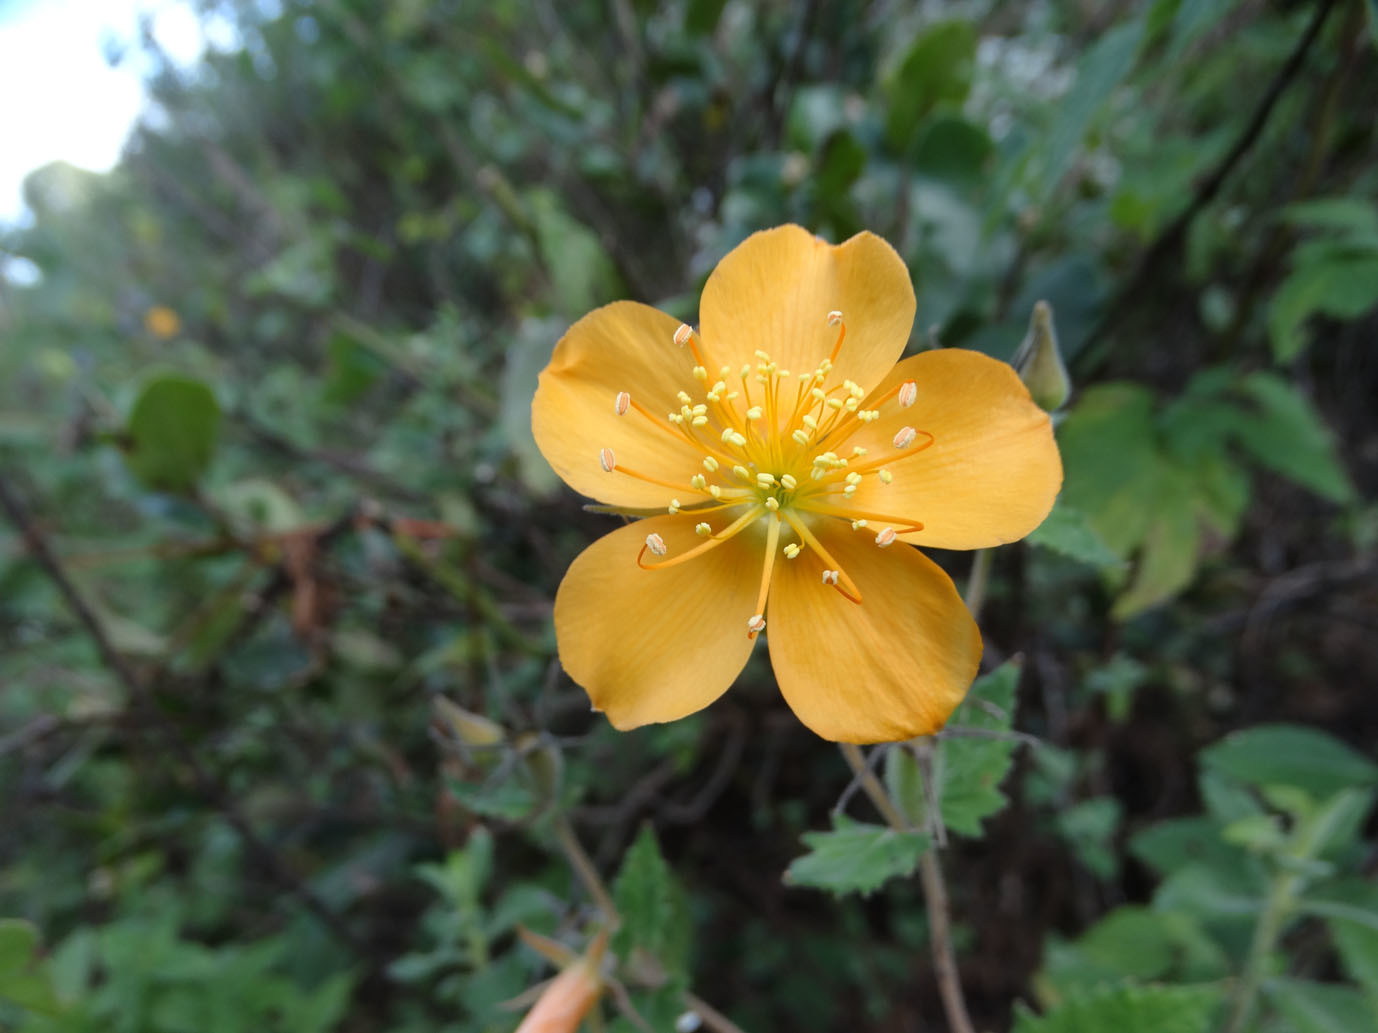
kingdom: Plantae
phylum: Tracheophyta
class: Magnoliopsida
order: Cornales
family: Loasaceae
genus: Mentzelia
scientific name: Mentzelia hispida
